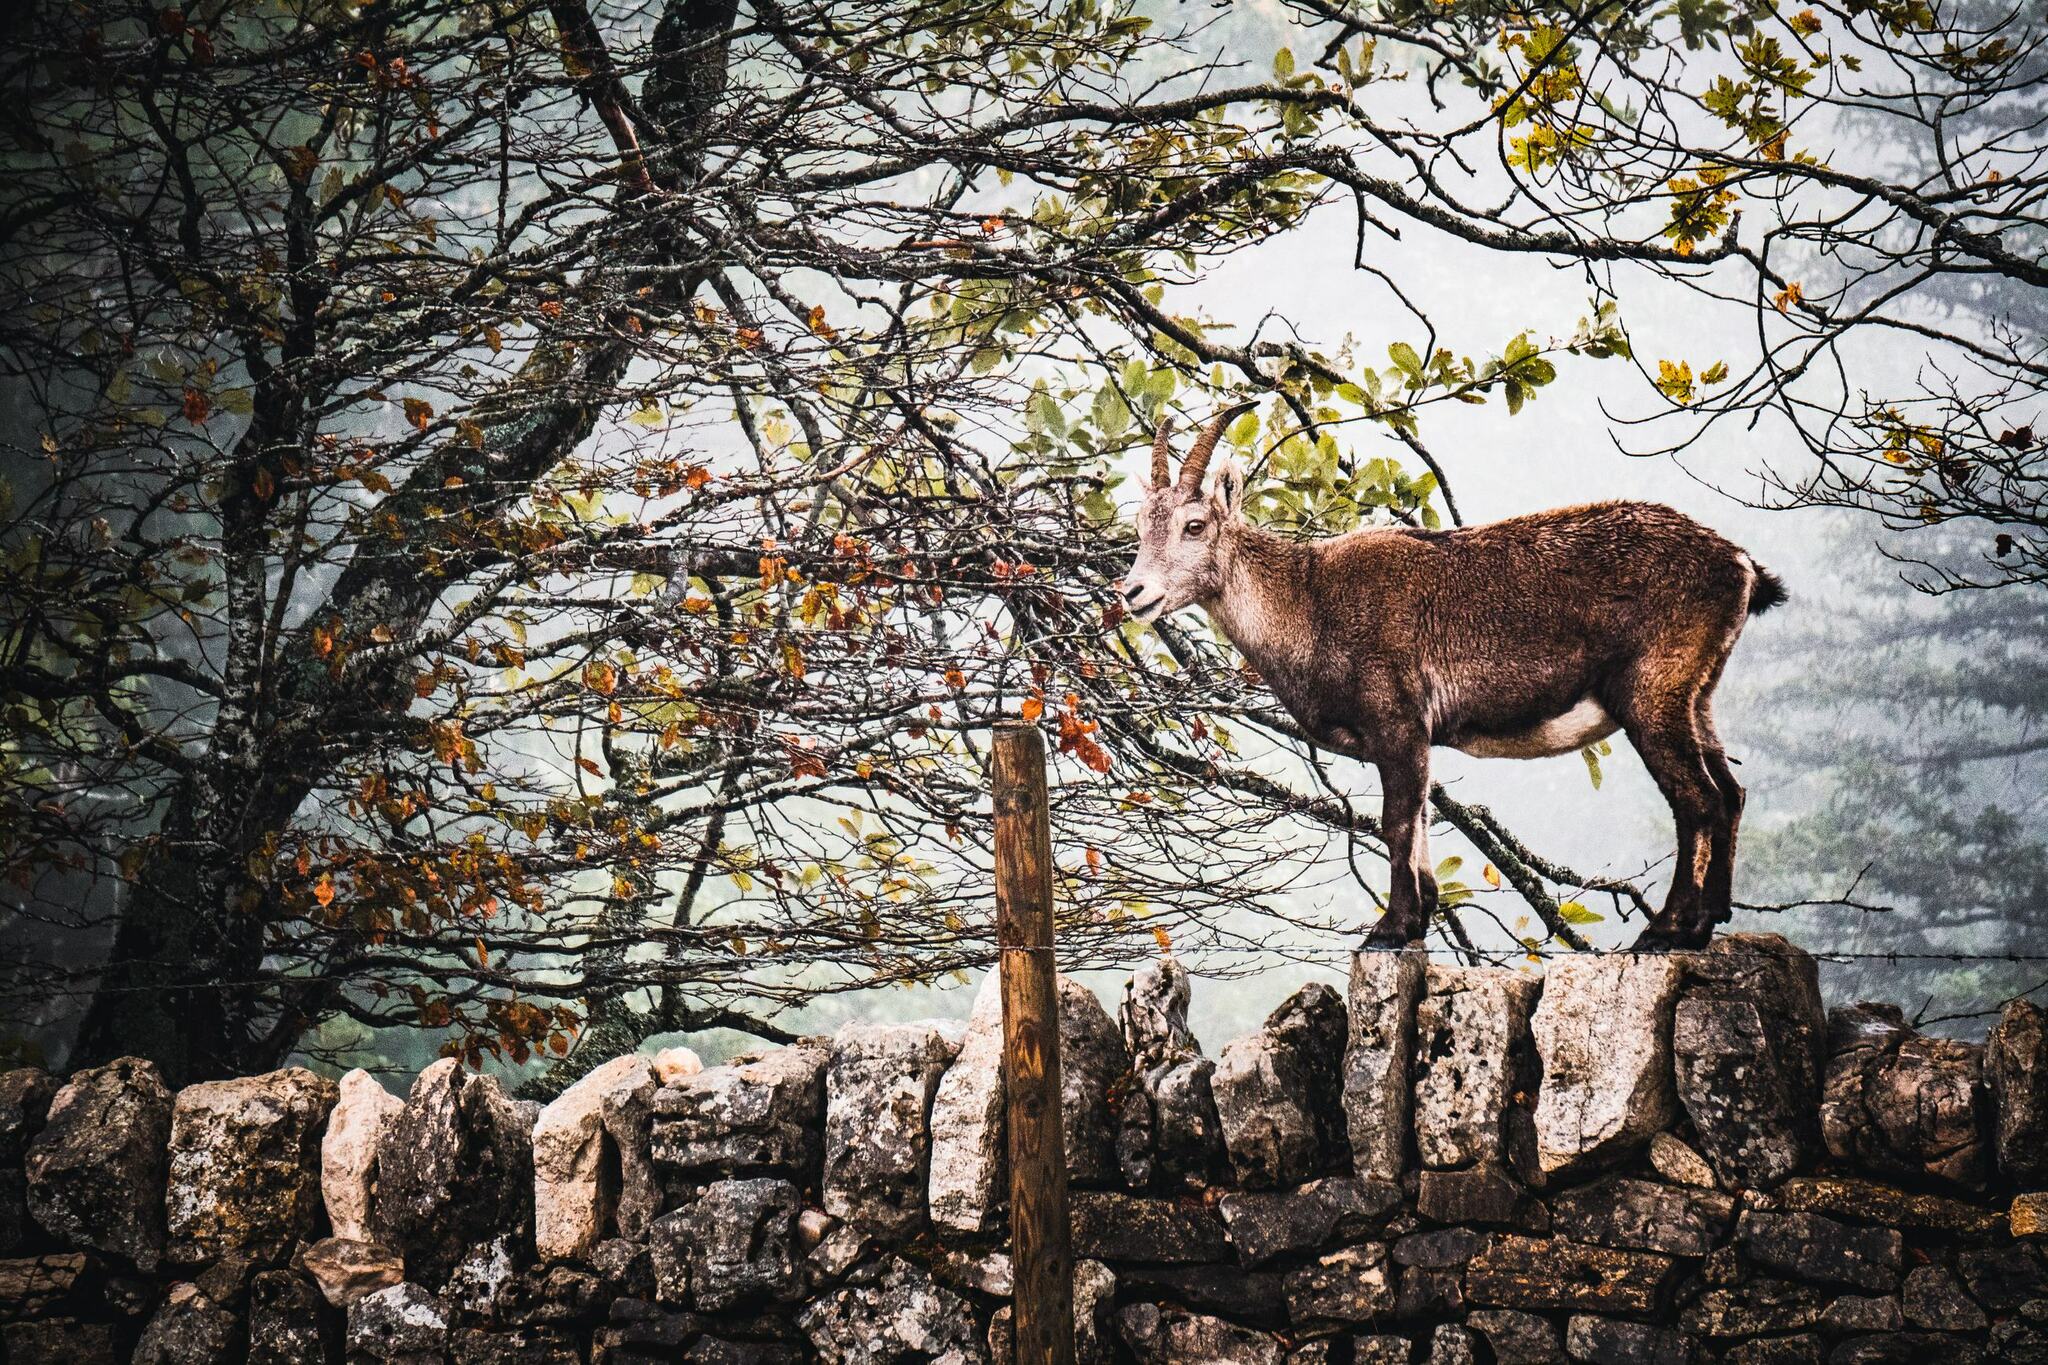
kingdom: Animalia
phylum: Chordata
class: Mammalia
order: Artiodactyla
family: Bovidae
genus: Capra
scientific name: Capra ibex
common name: Alpine ibex
